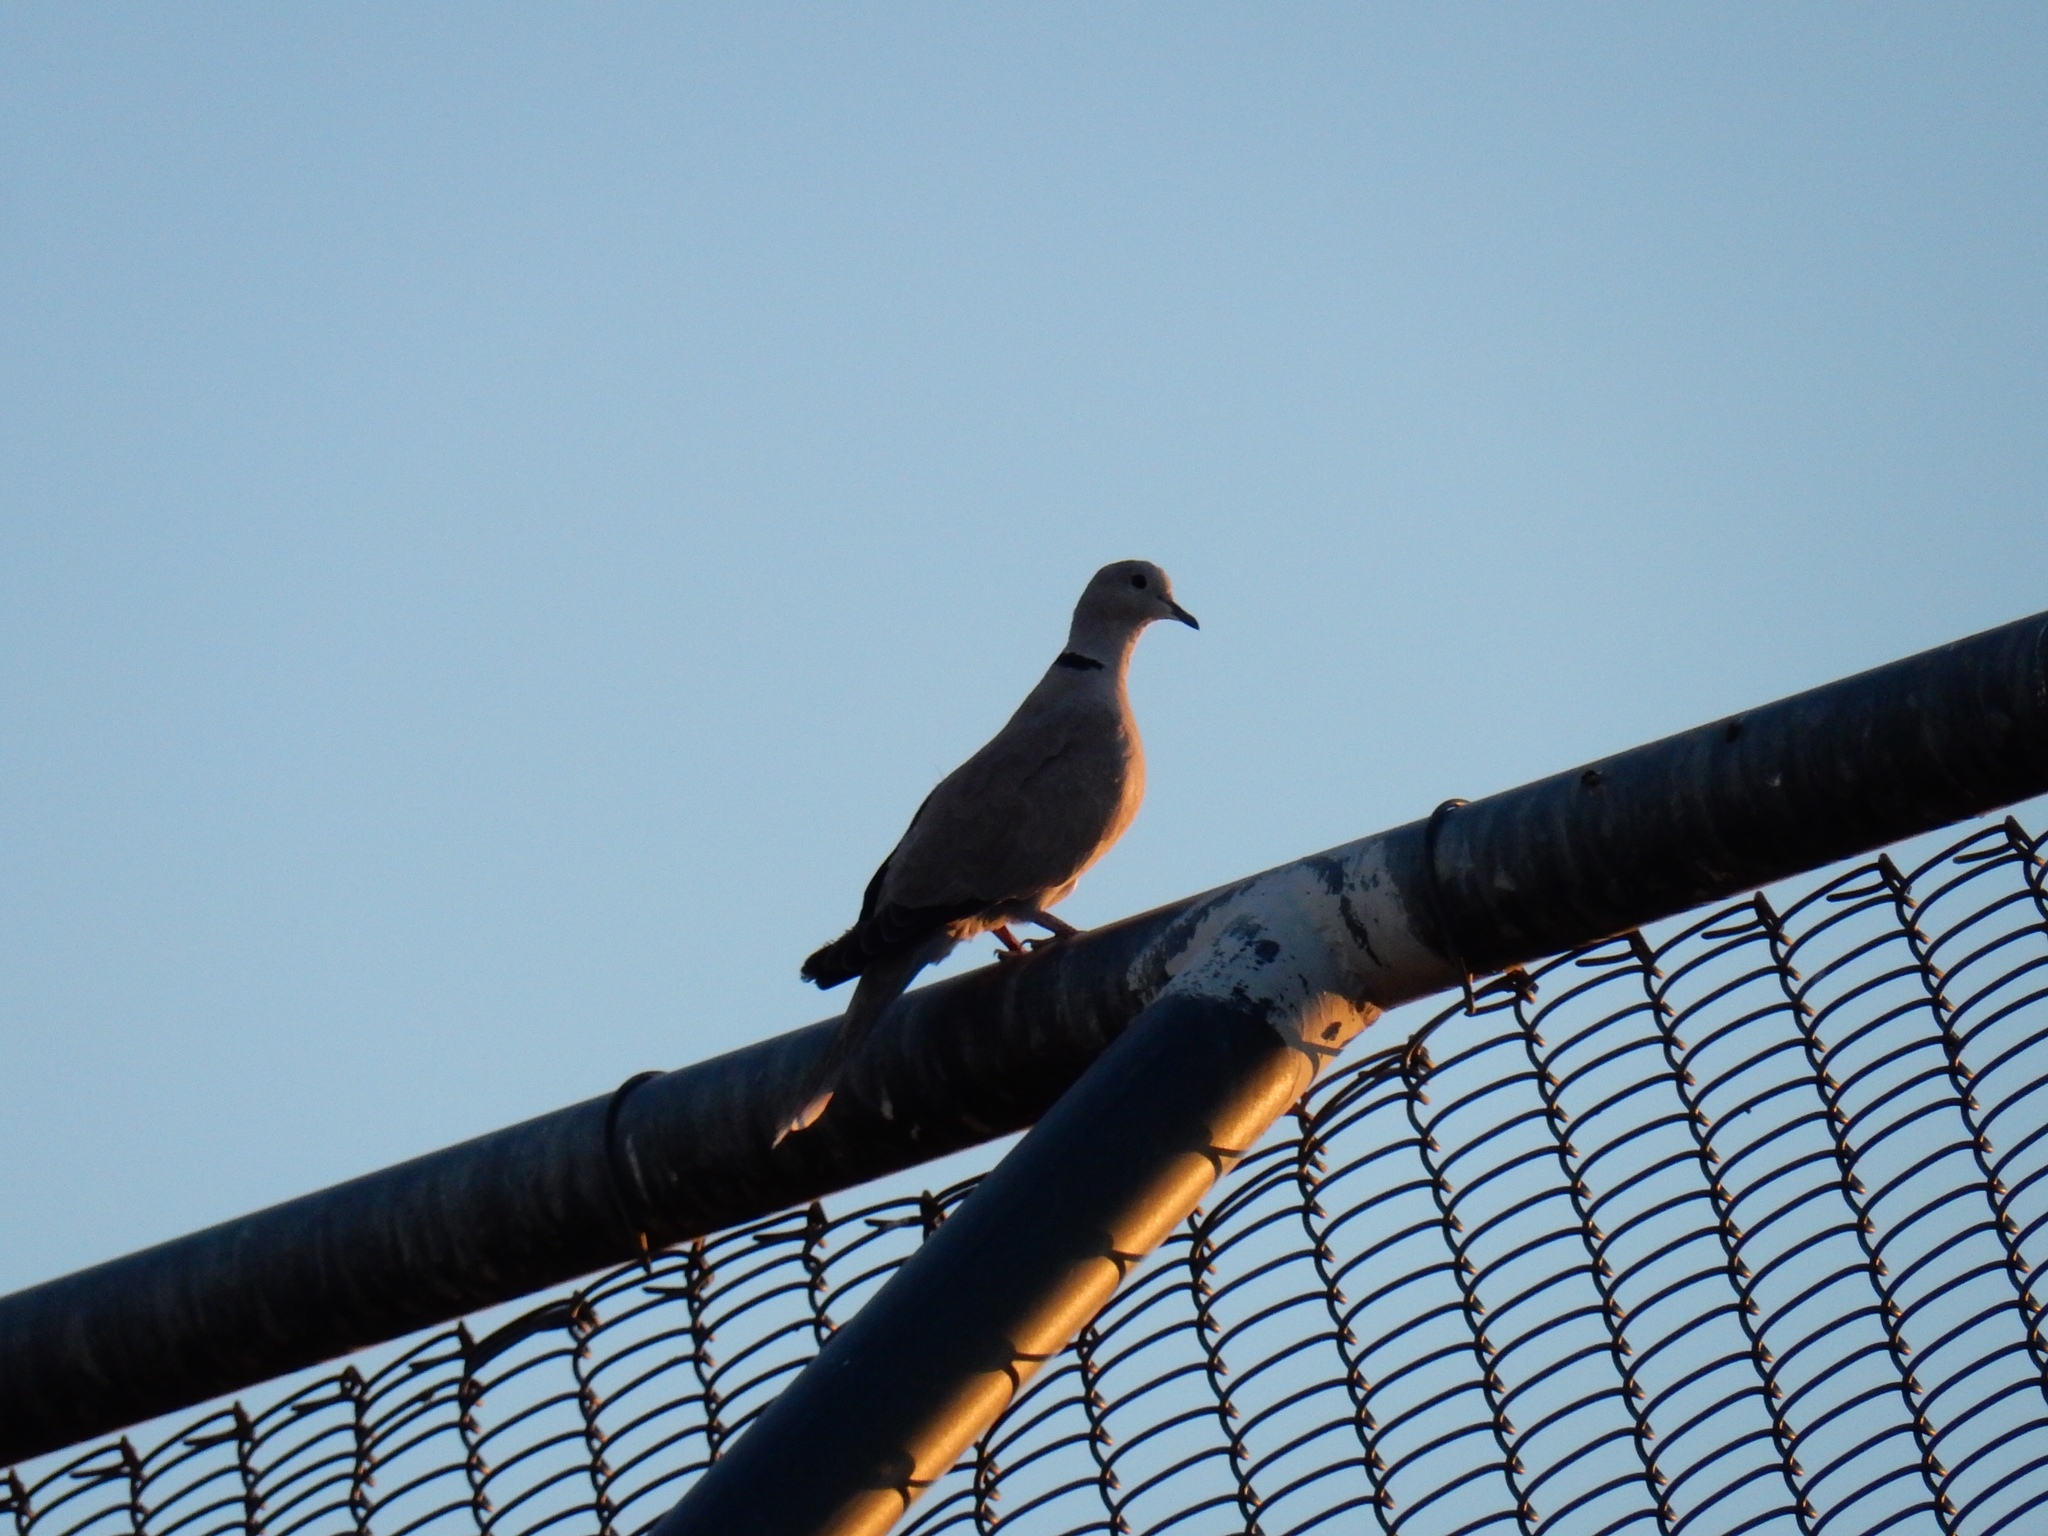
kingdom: Animalia
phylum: Chordata
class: Aves
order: Columbiformes
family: Columbidae
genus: Streptopelia
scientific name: Streptopelia decaocto
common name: Eurasian collared dove
